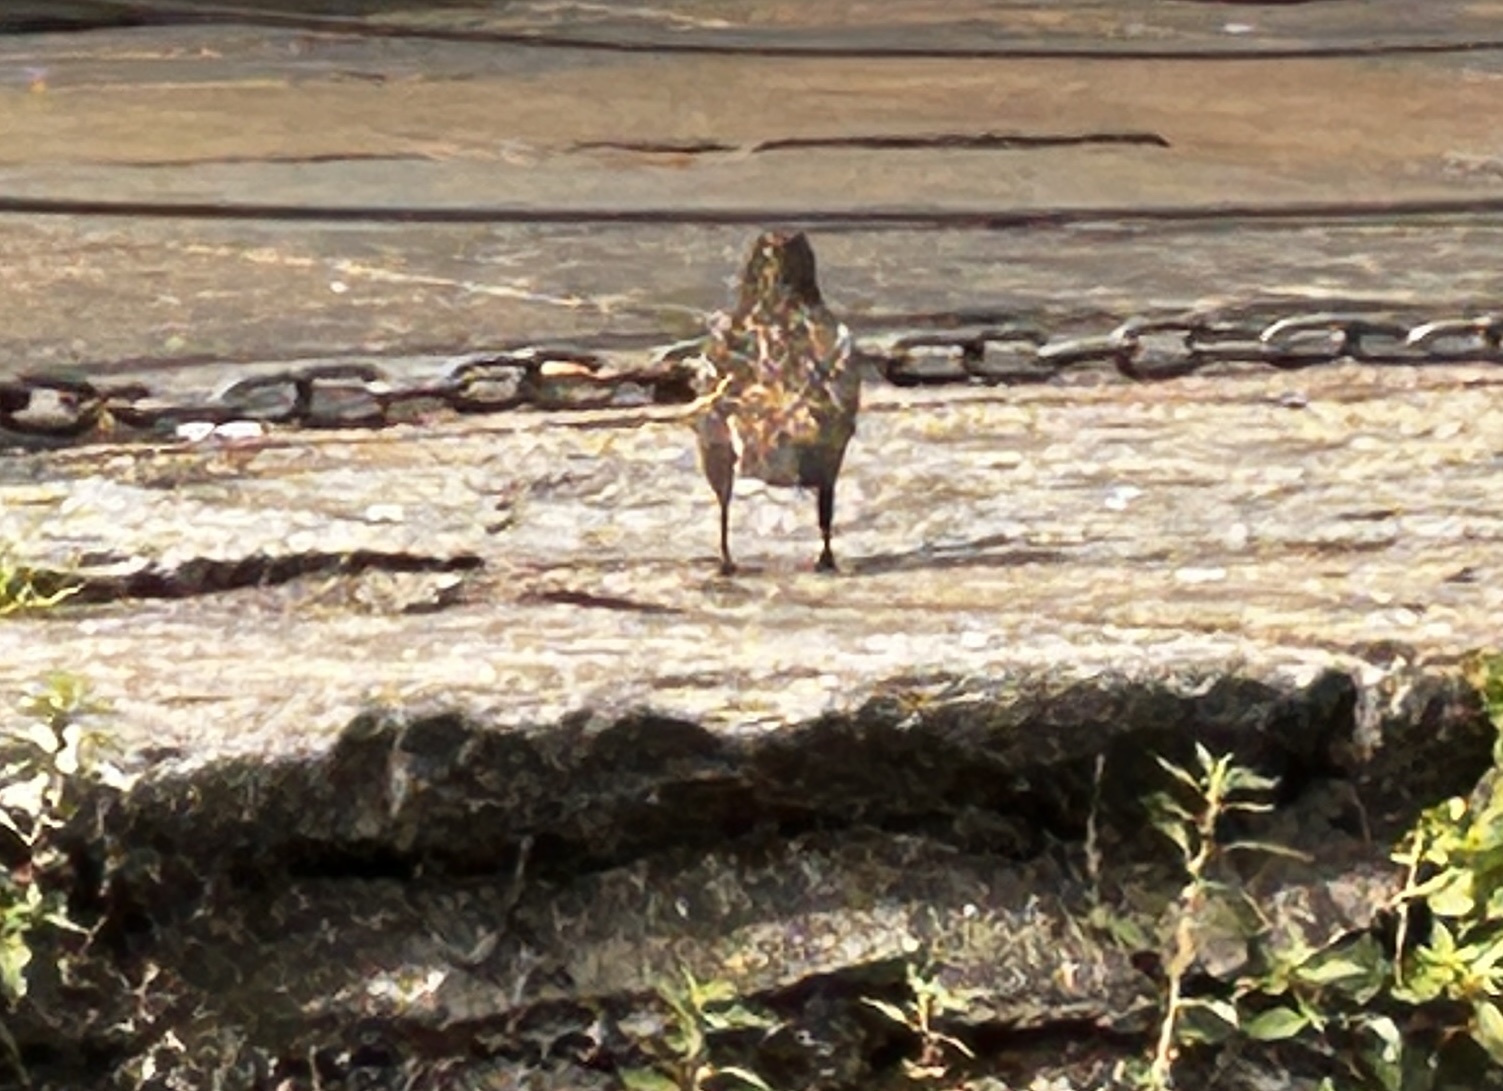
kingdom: Animalia
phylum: Chordata
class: Aves
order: Passeriformes
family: Sturnidae
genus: Sturnus
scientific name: Sturnus vulgaris
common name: Common starling
